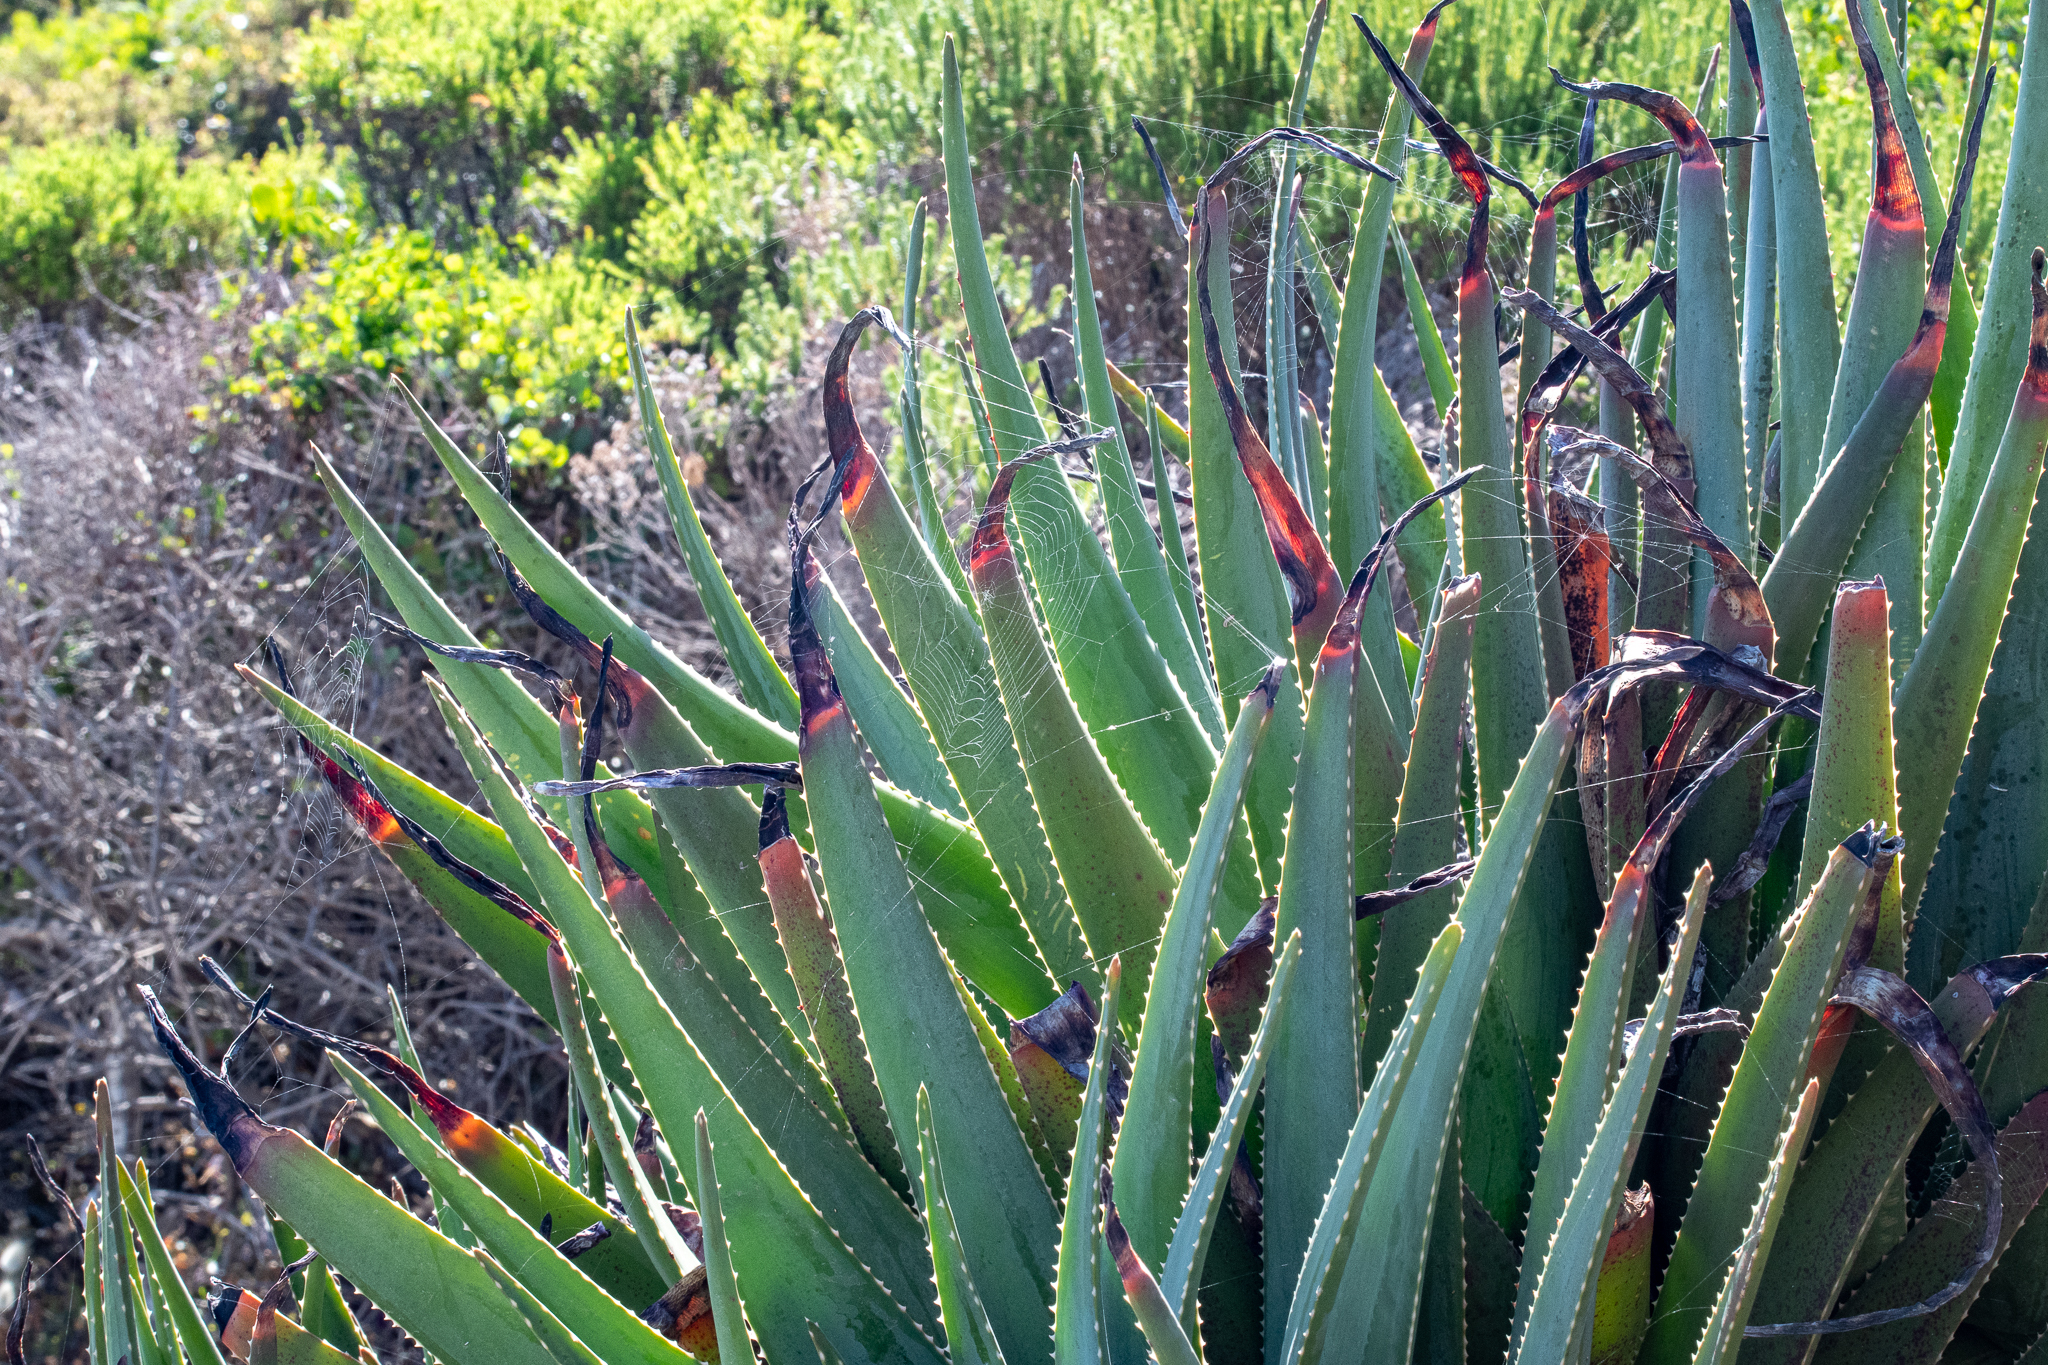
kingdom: Plantae
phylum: Tracheophyta
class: Liliopsida
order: Asparagales
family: Asphodelaceae
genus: Aloe
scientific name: Aloe succotrina
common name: Bombay aloe
